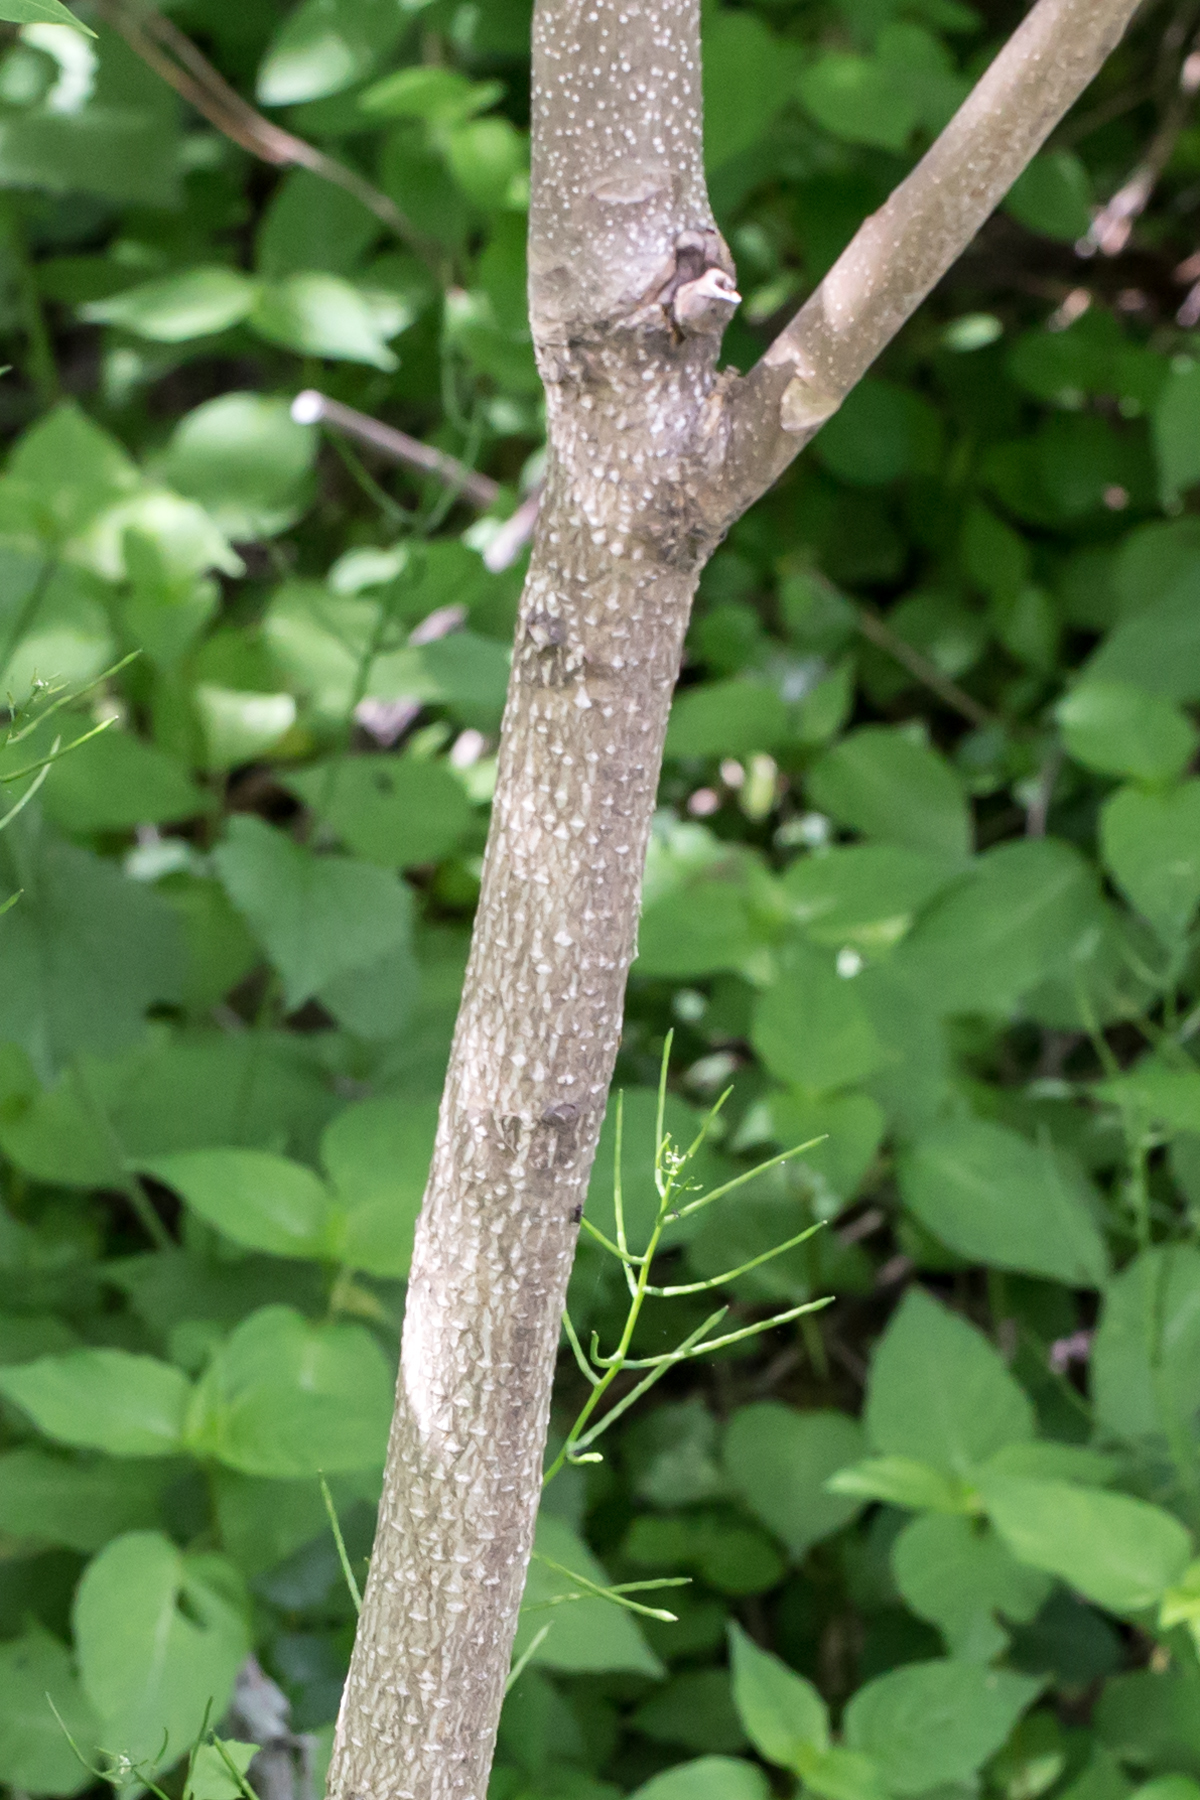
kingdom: Plantae
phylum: Tracheophyta
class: Magnoliopsida
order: Sapindales
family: Simaroubaceae
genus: Ailanthus
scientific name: Ailanthus altissima
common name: Tree-of-heaven
